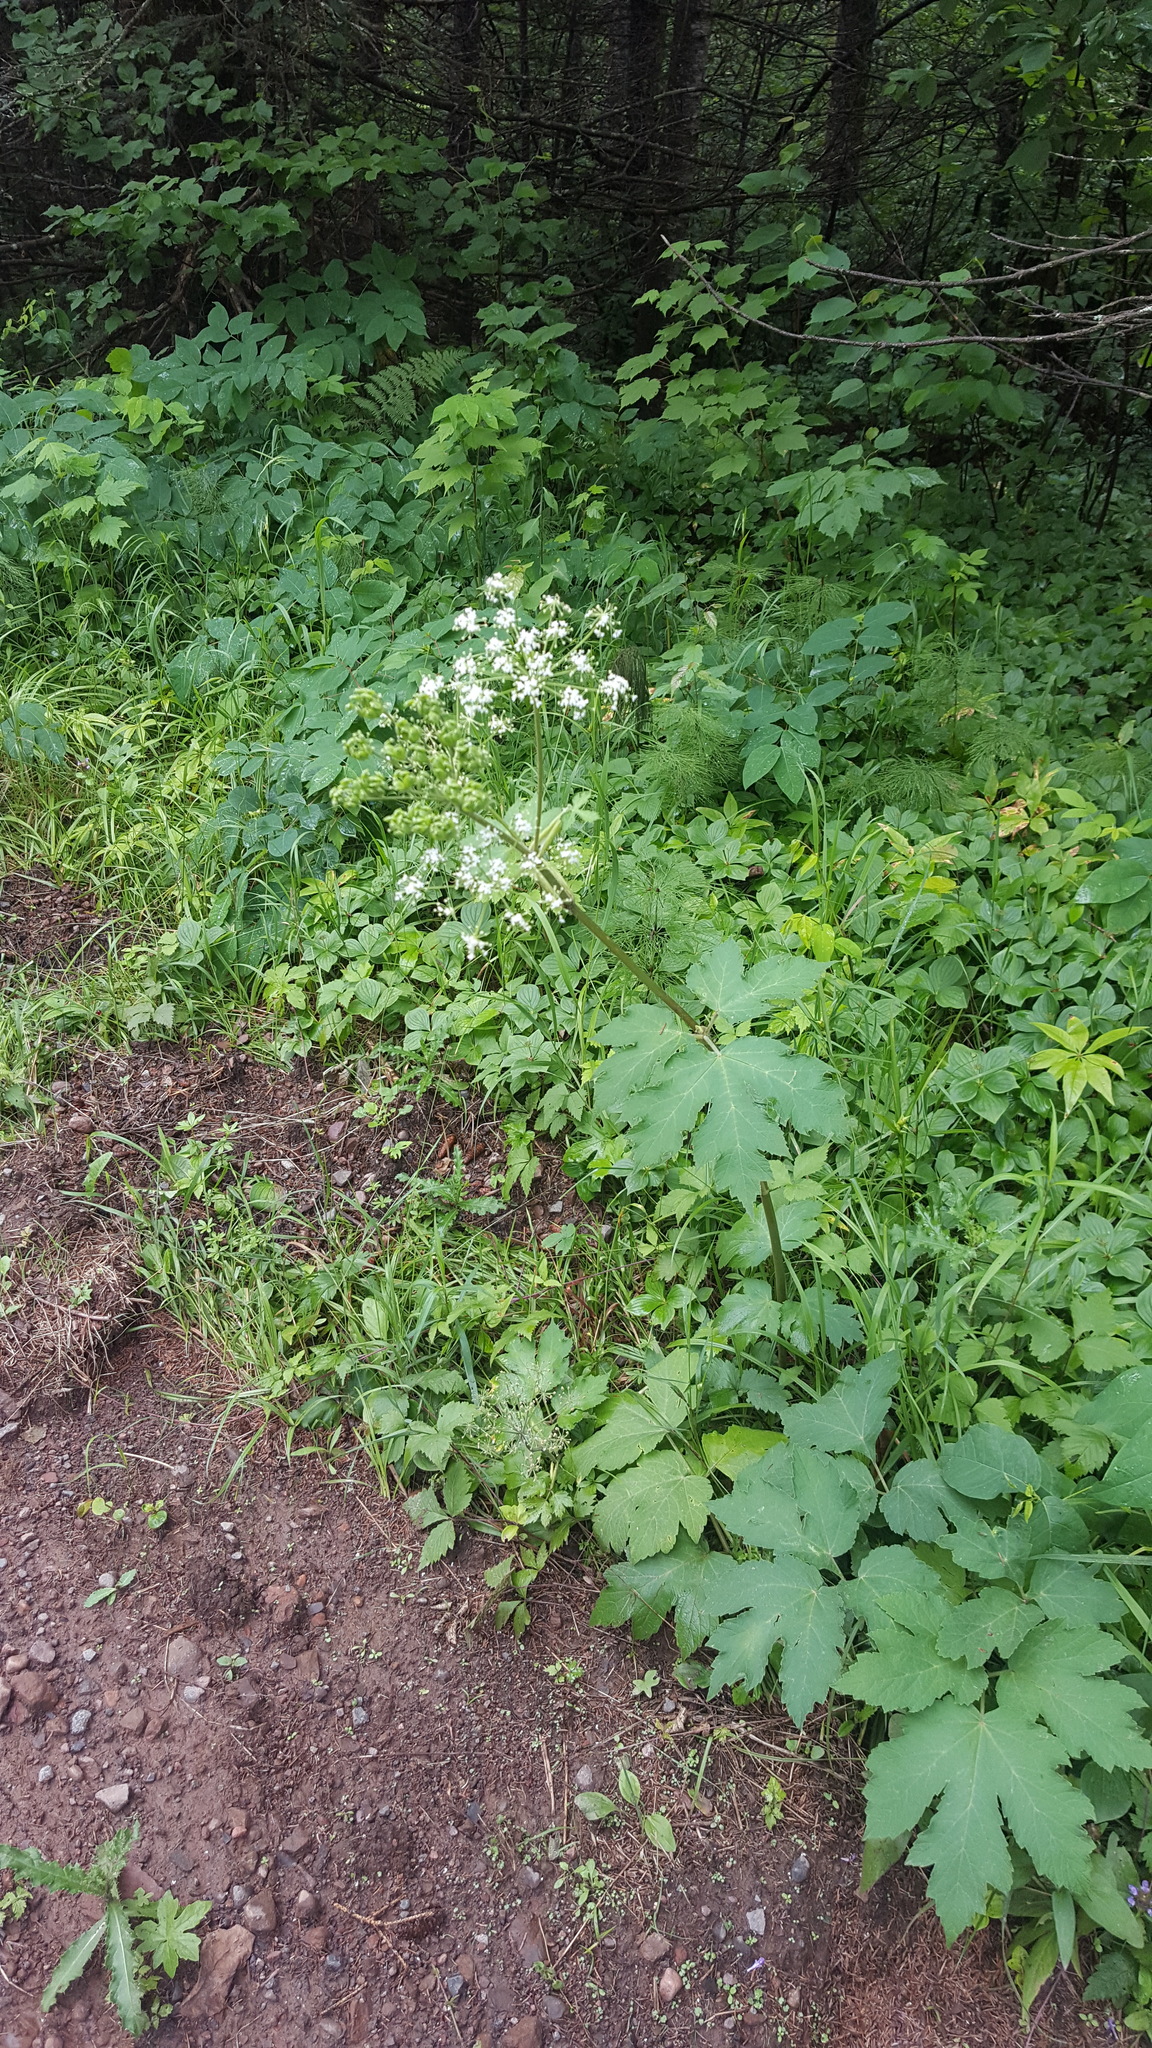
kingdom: Plantae
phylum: Tracheophyta
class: Magnoliopsida
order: Apiales
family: Apiaceae
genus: Heracleum
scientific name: Heracleum maximum
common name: American cow parsnip
